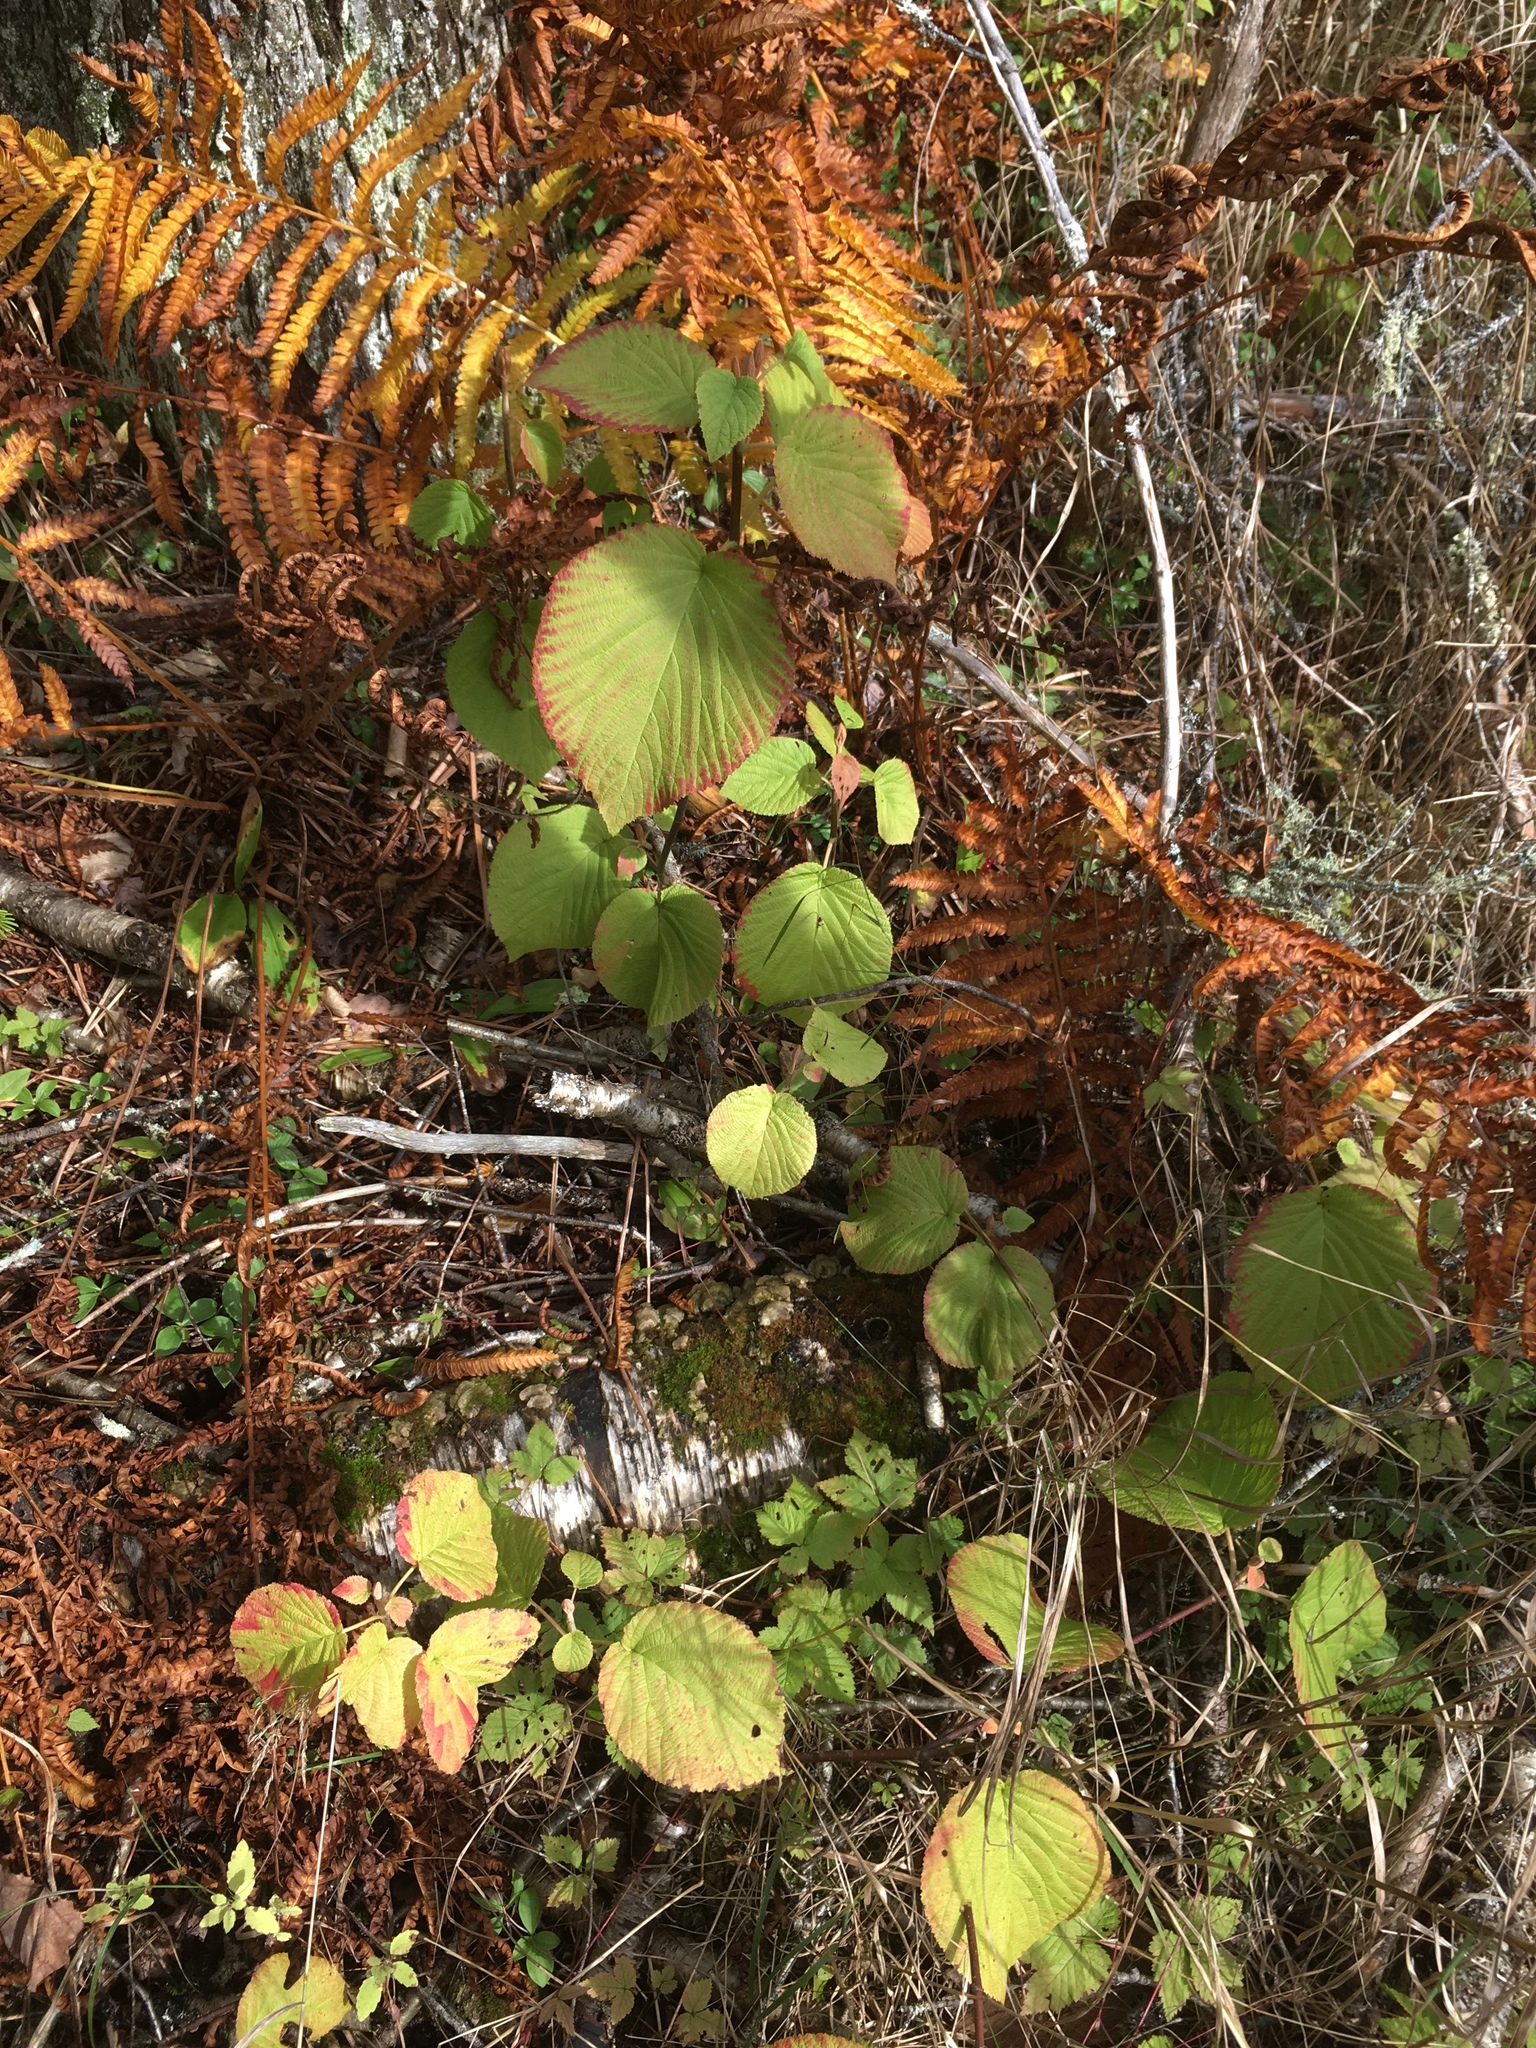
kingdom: Plantae
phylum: Tracheophyta
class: Magnoliopsida
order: Dipsacales
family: Viburnaceae
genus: Viburnum
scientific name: Viburnum lantanoides
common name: Hobblebush
